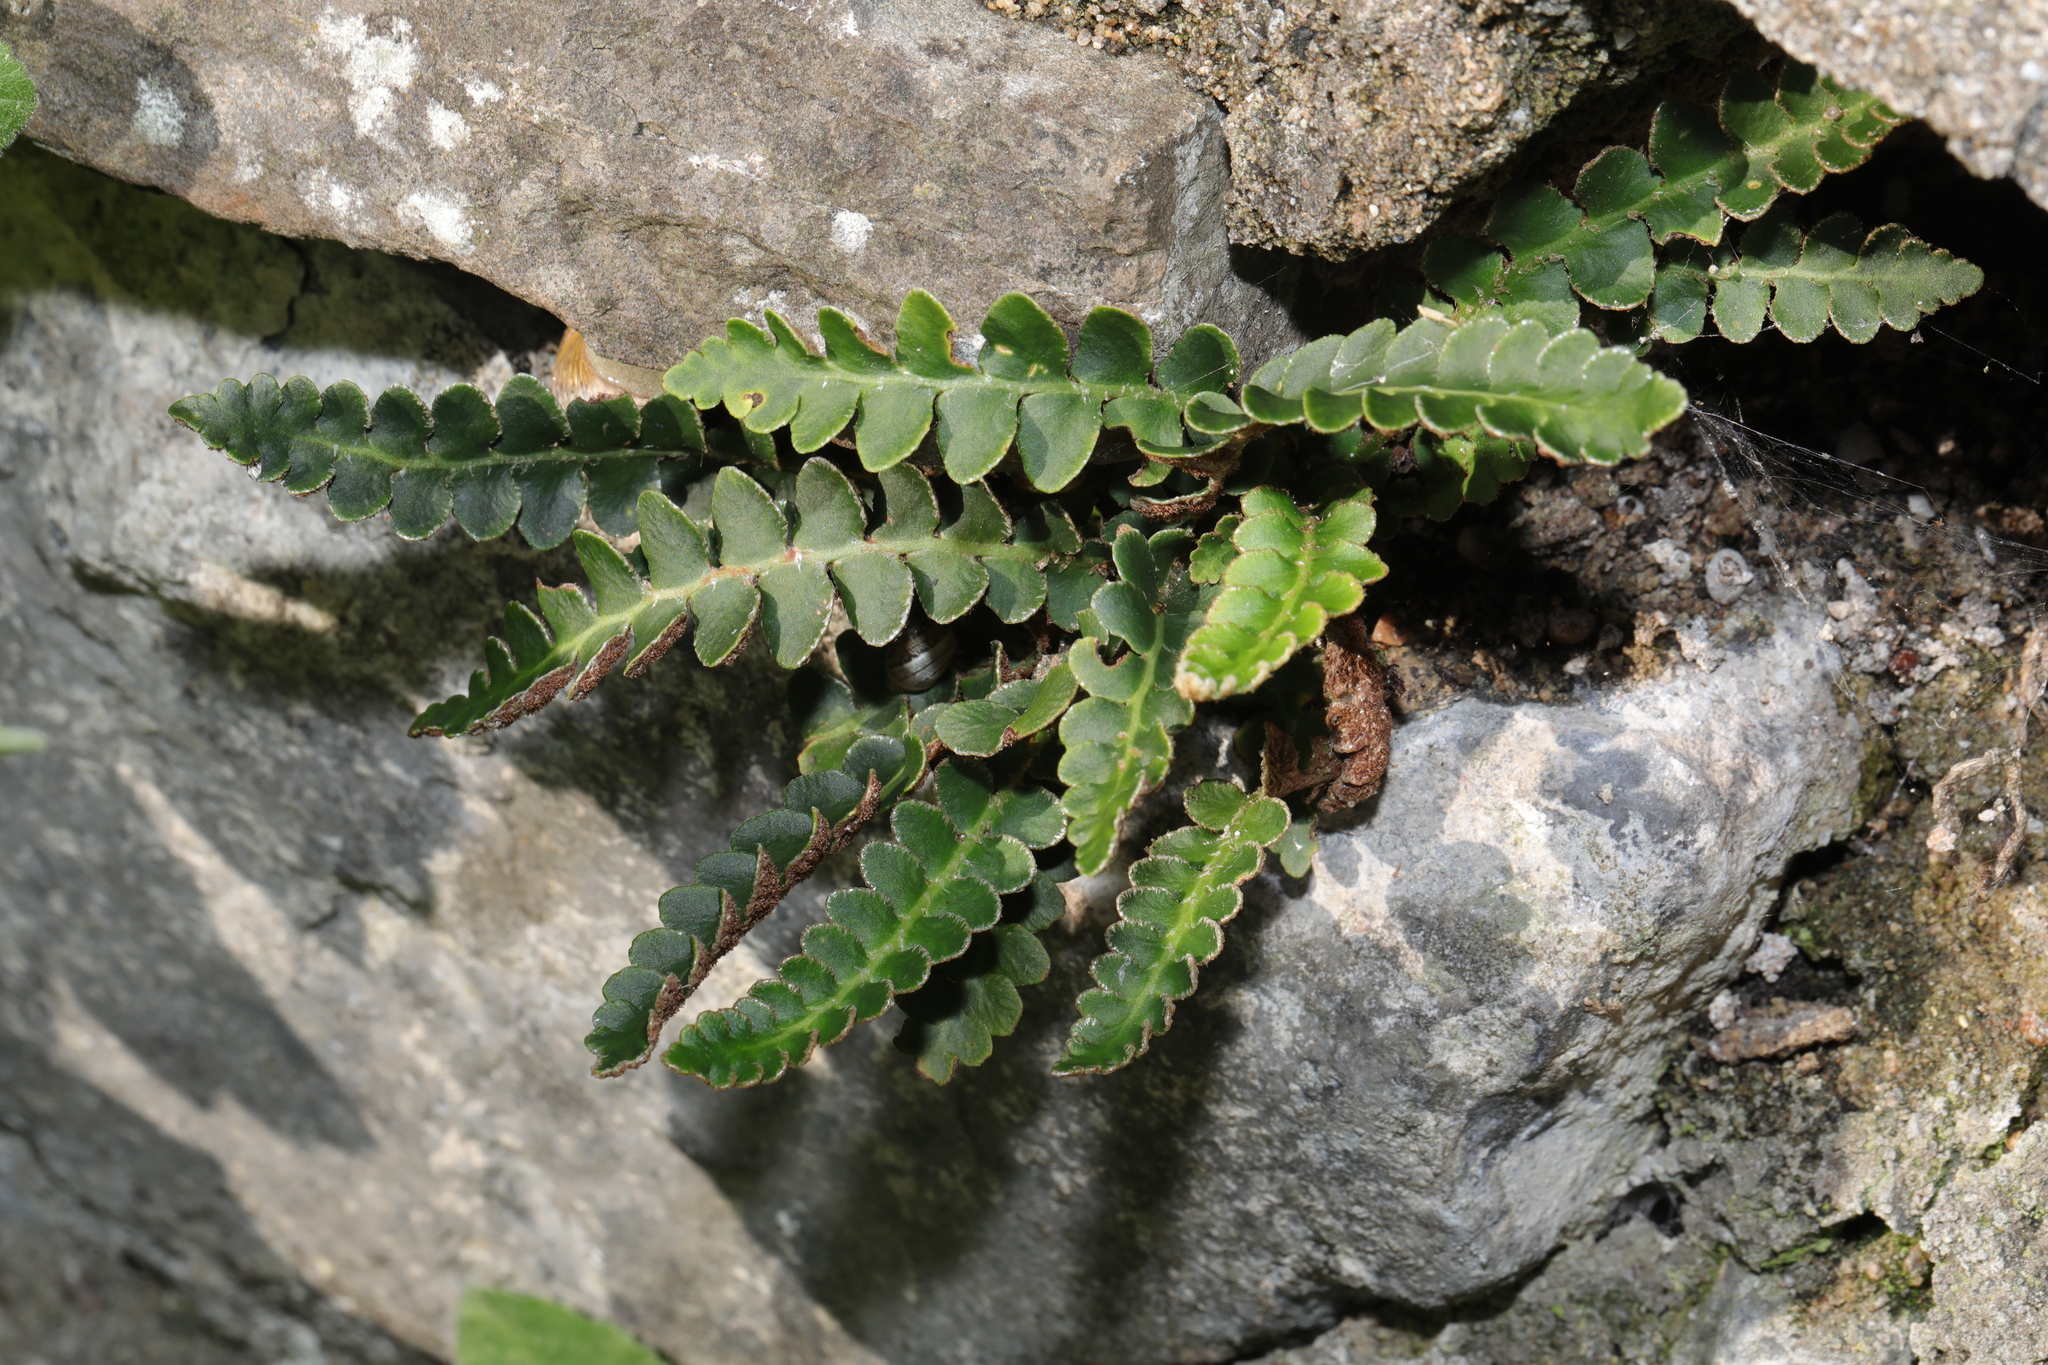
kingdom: Plantae
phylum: Tracheophyta
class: Polypodiopsida
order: Polypodiales
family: Aspleniaceae
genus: Asplenium
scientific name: Asplenium ceterach
